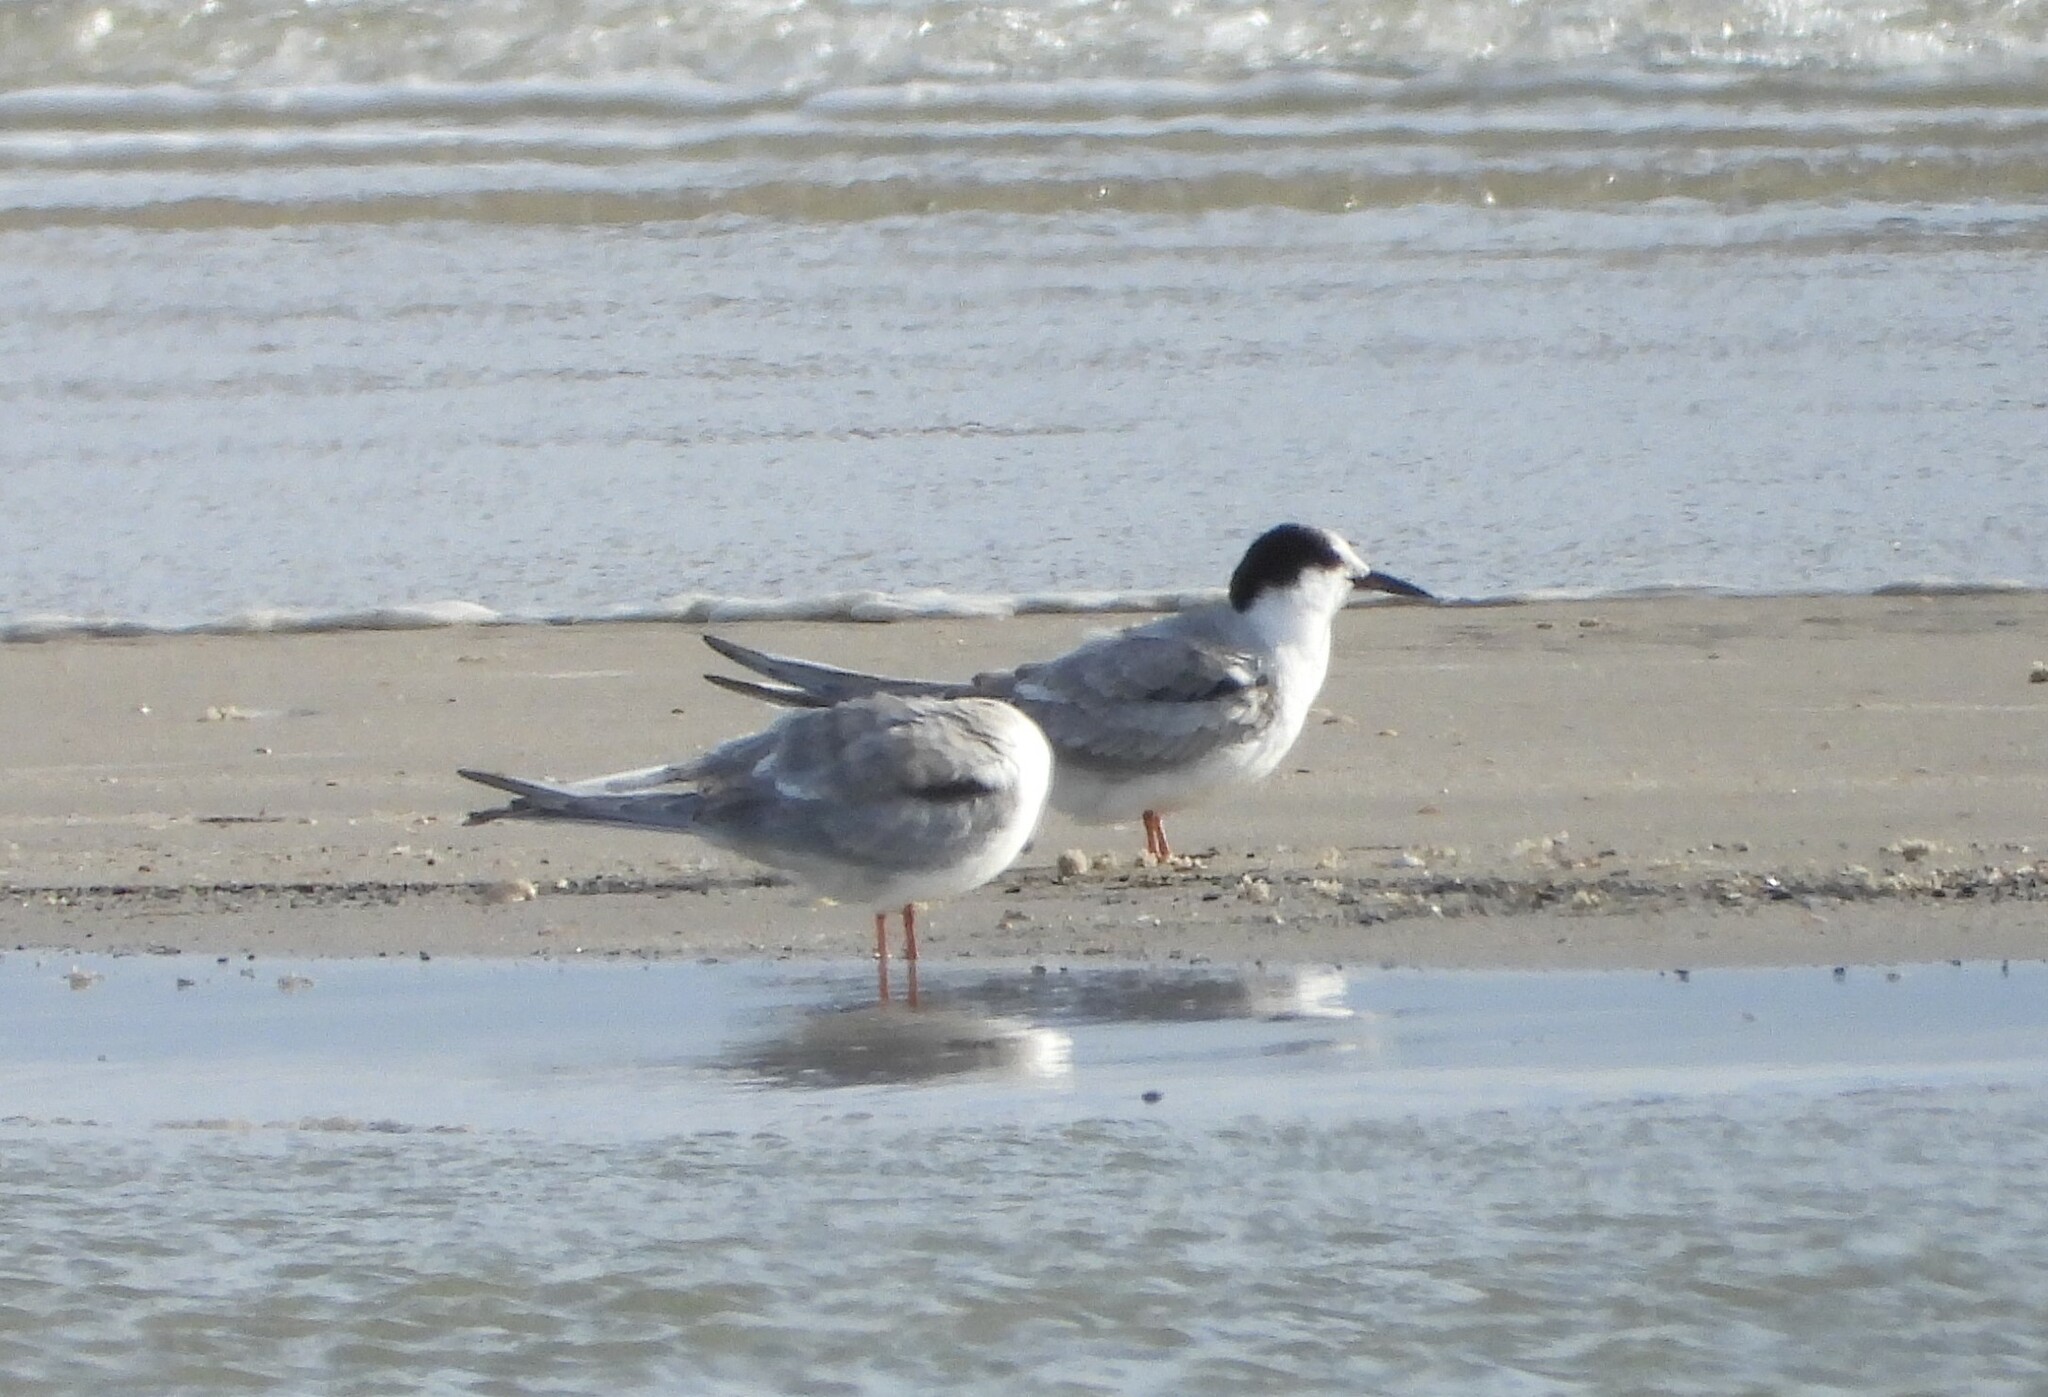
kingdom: Animalia
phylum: Chordata
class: Aves
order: Charadriiformes
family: Laridae
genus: Sterna
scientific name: Sterna hirundo
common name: Common tern
